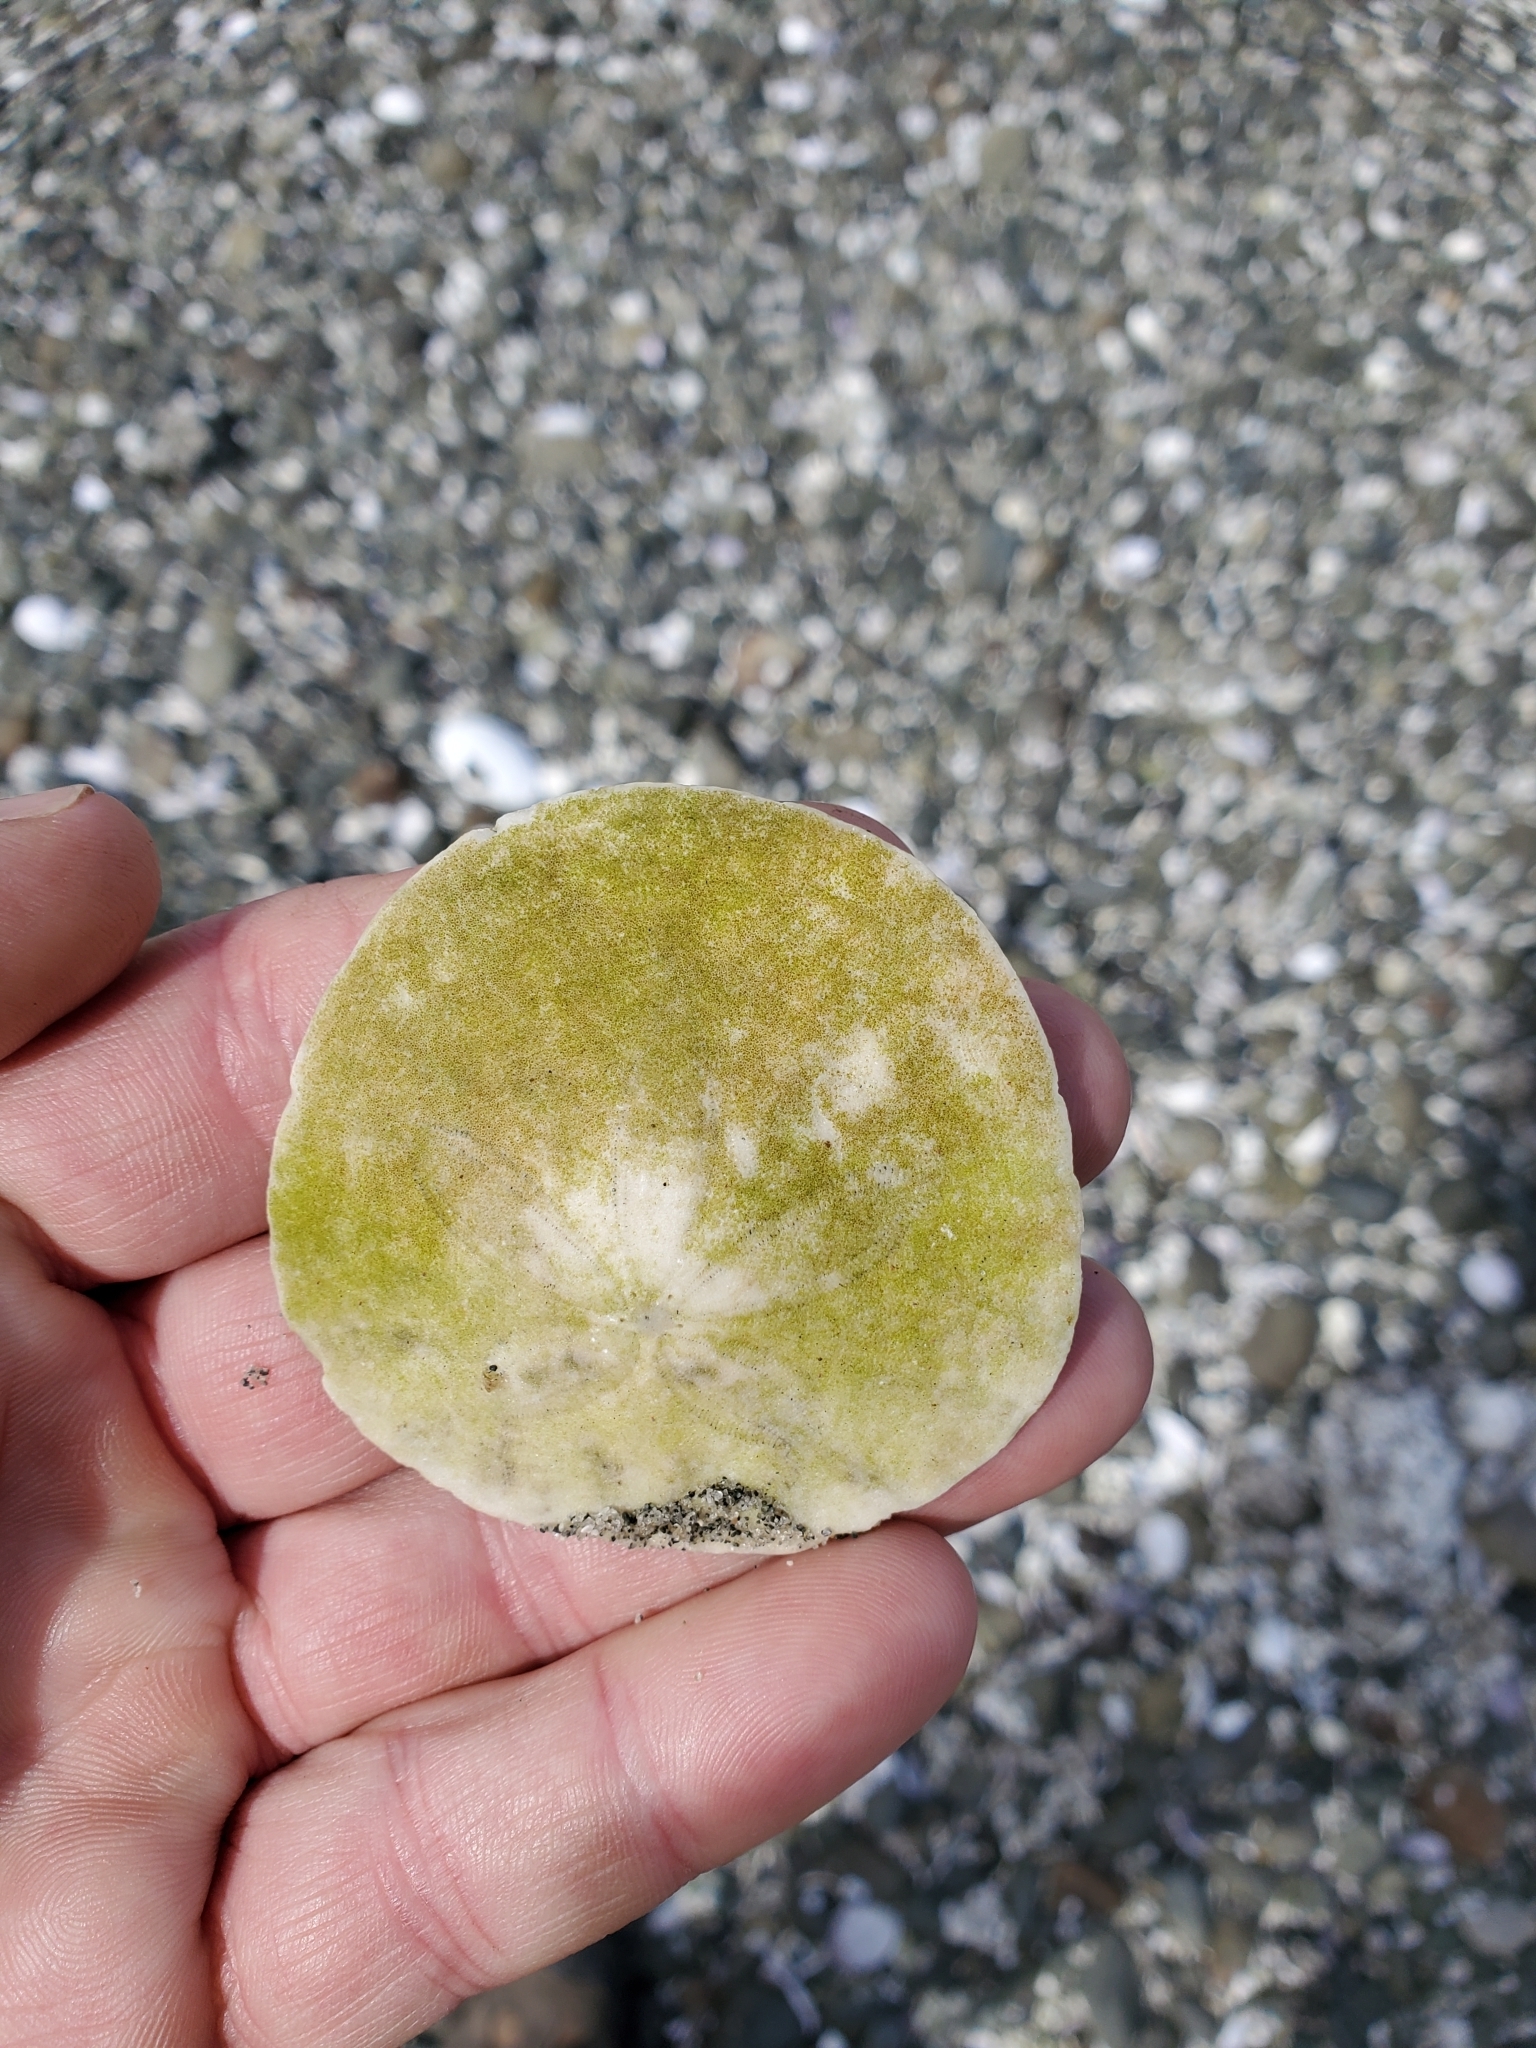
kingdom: Animalia
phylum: Echinodermata
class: Echinoidea
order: Echinolampadacea
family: Dendrasteridae
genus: Dendraster
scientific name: Dendraster excentricus
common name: Eccentric sand dollar sea urchin
